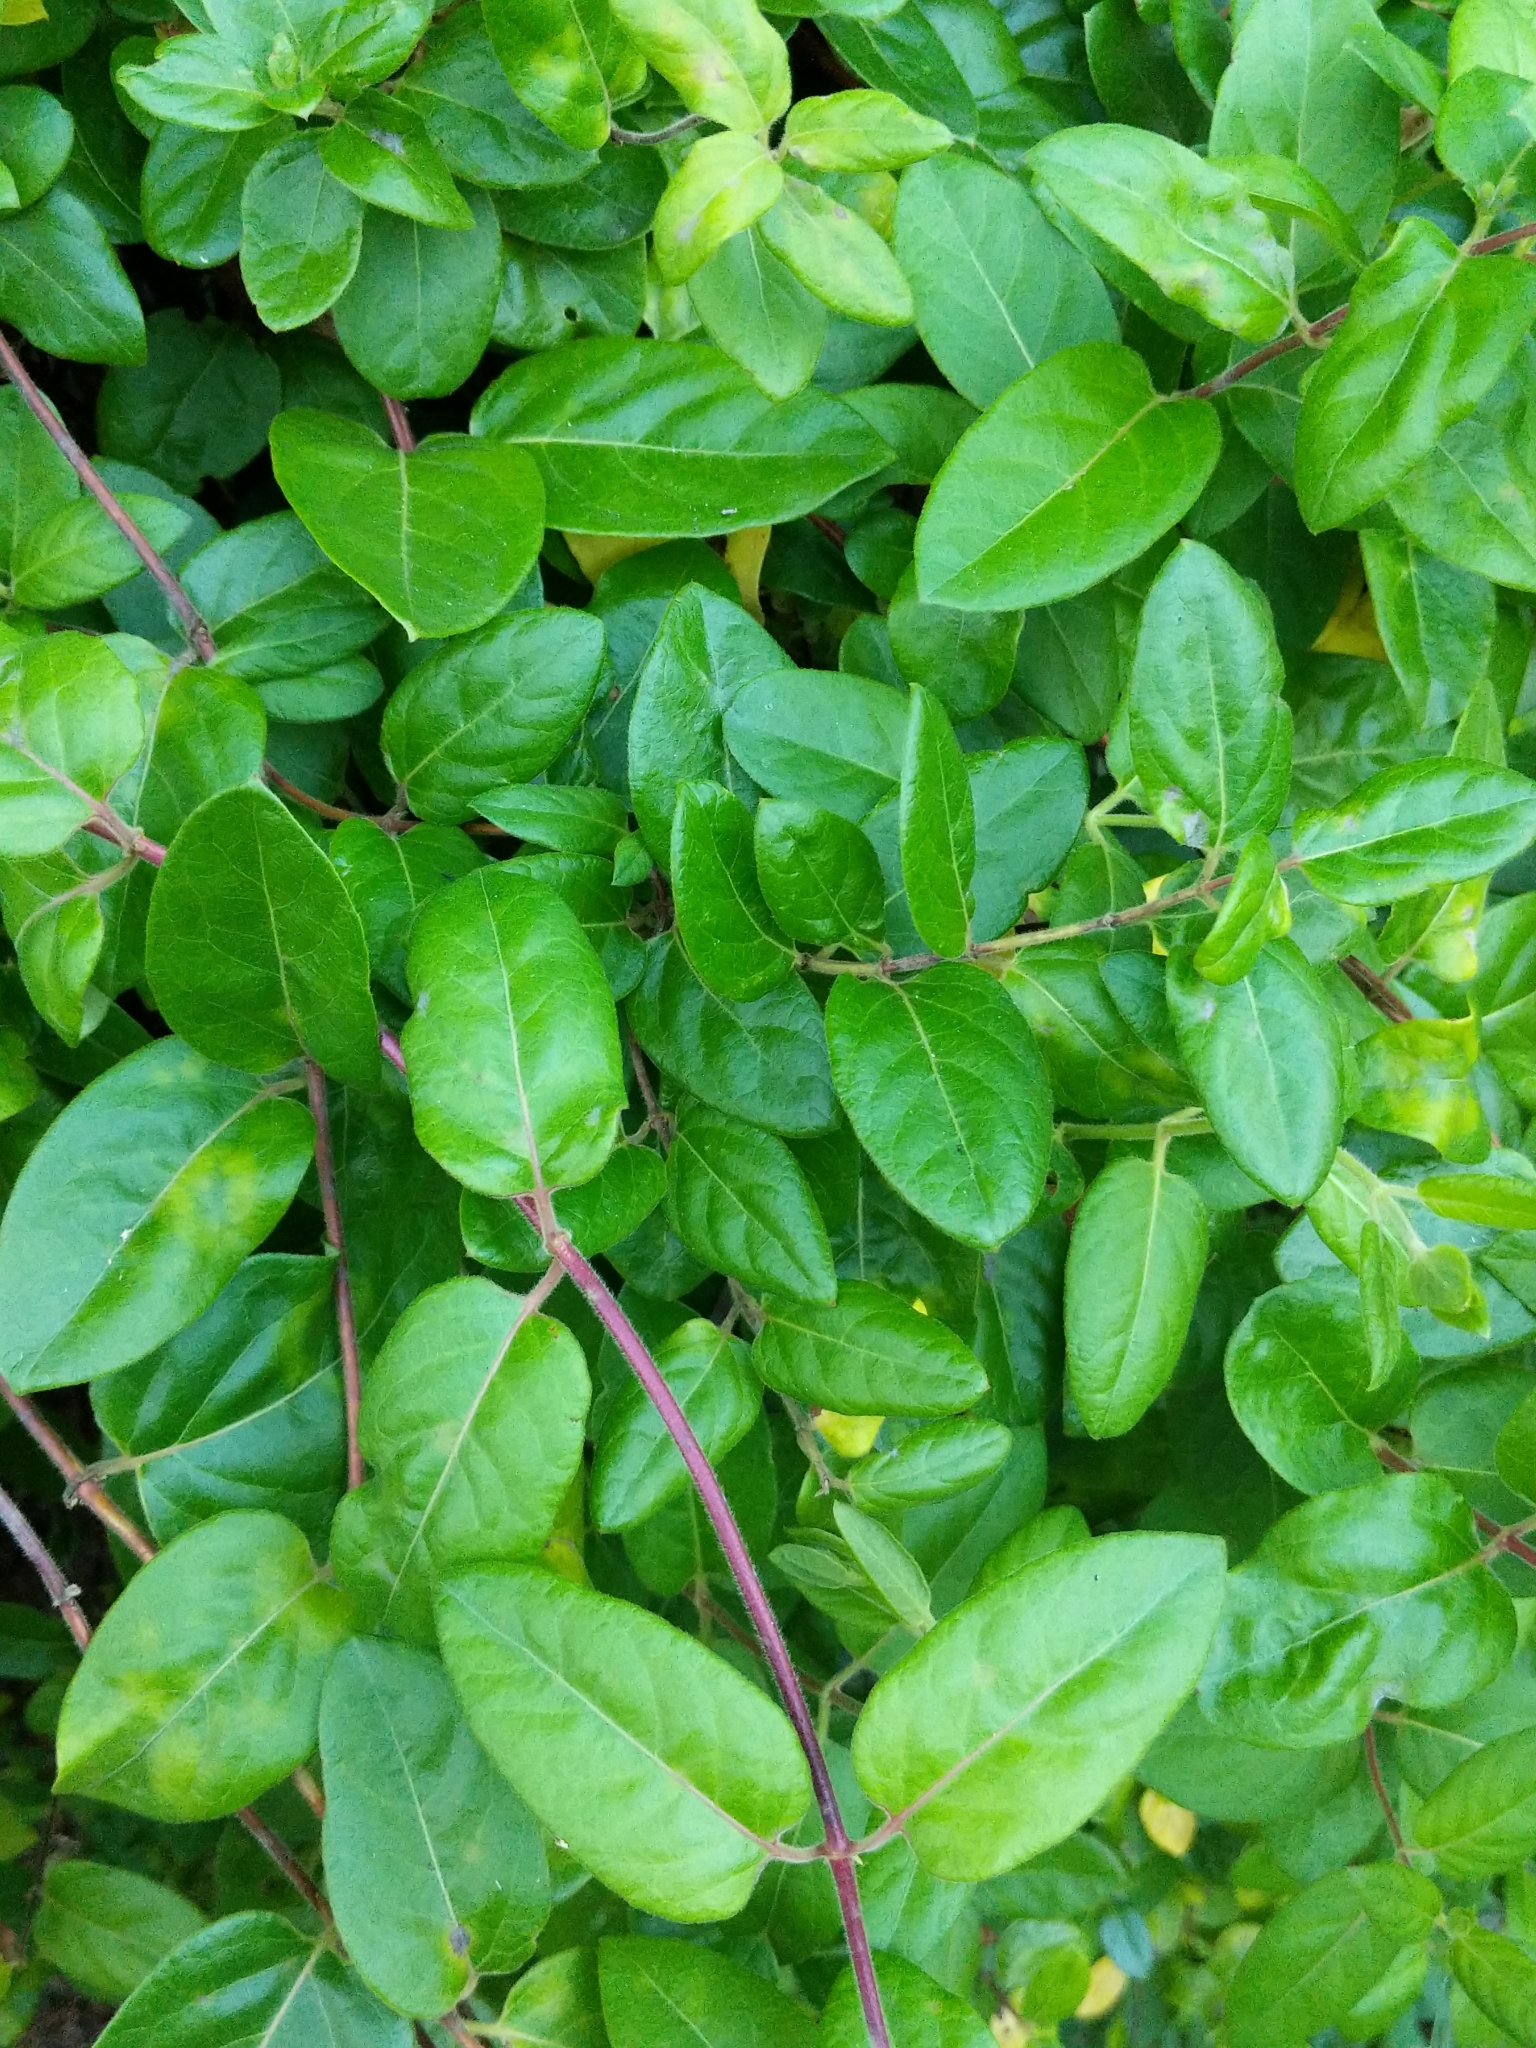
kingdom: Plantae
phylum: Tracheophyta
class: Magnoliopsida
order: Dipsacales
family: Caprifoliaceae
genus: Lonicera
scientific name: Lonicera japonica
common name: Japanese honeysuckle
